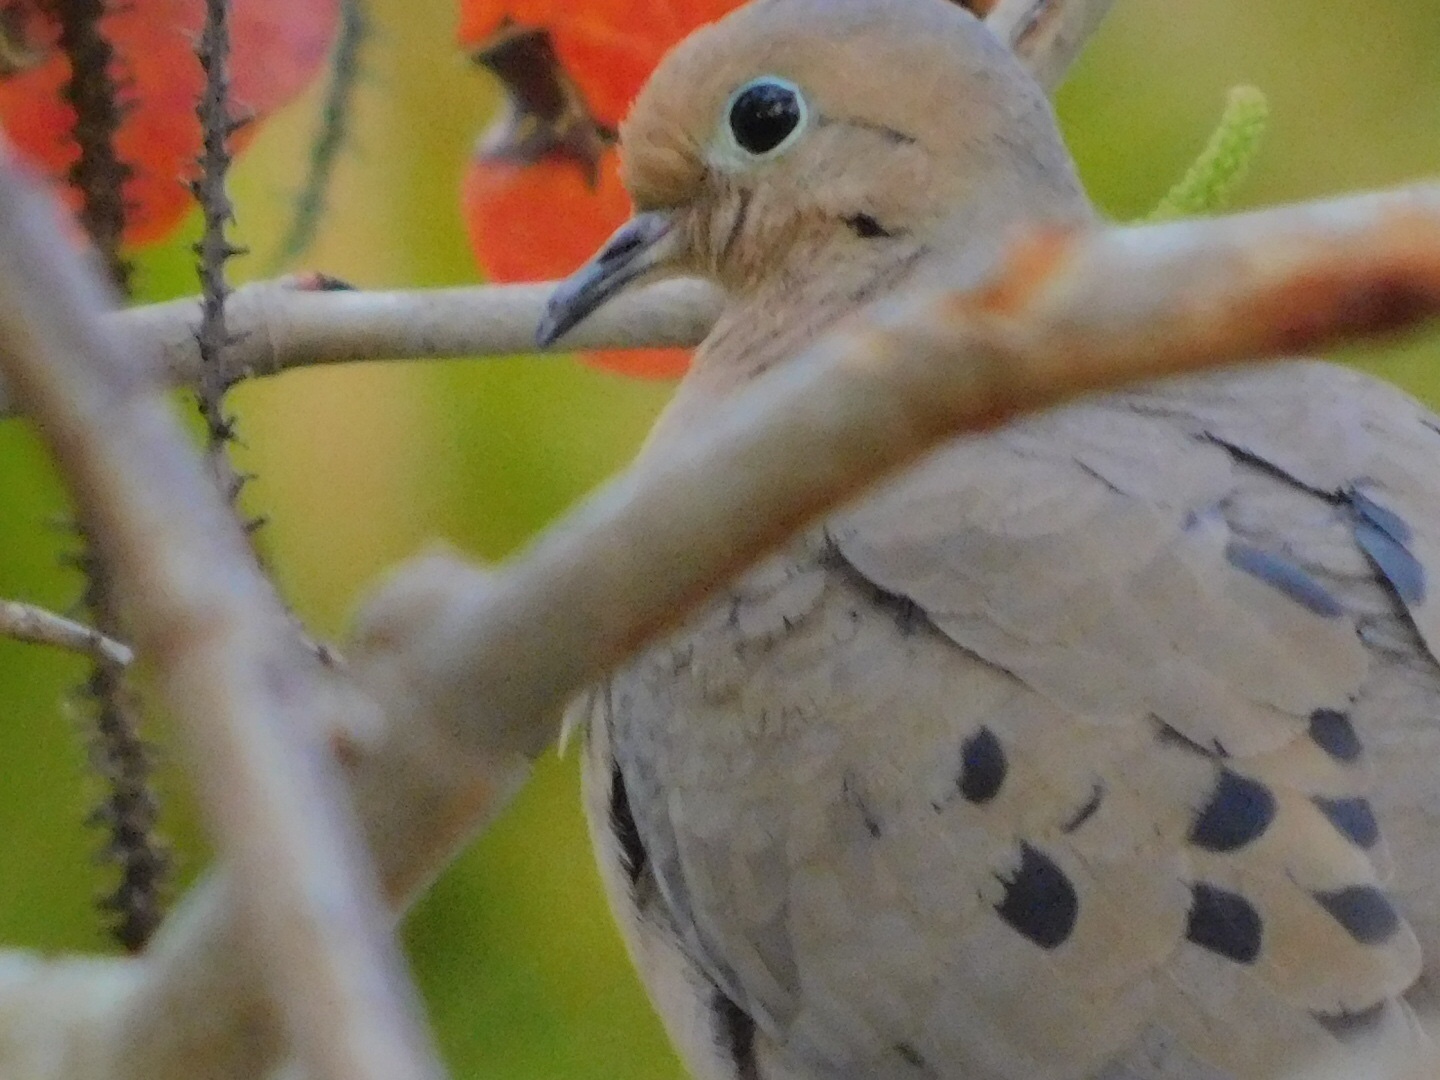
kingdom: Animalia
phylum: Chordata
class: Aves
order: Columbiformes
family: Columbidae
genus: Zenaida
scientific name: Zenaida macroura
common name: Mourning dove
